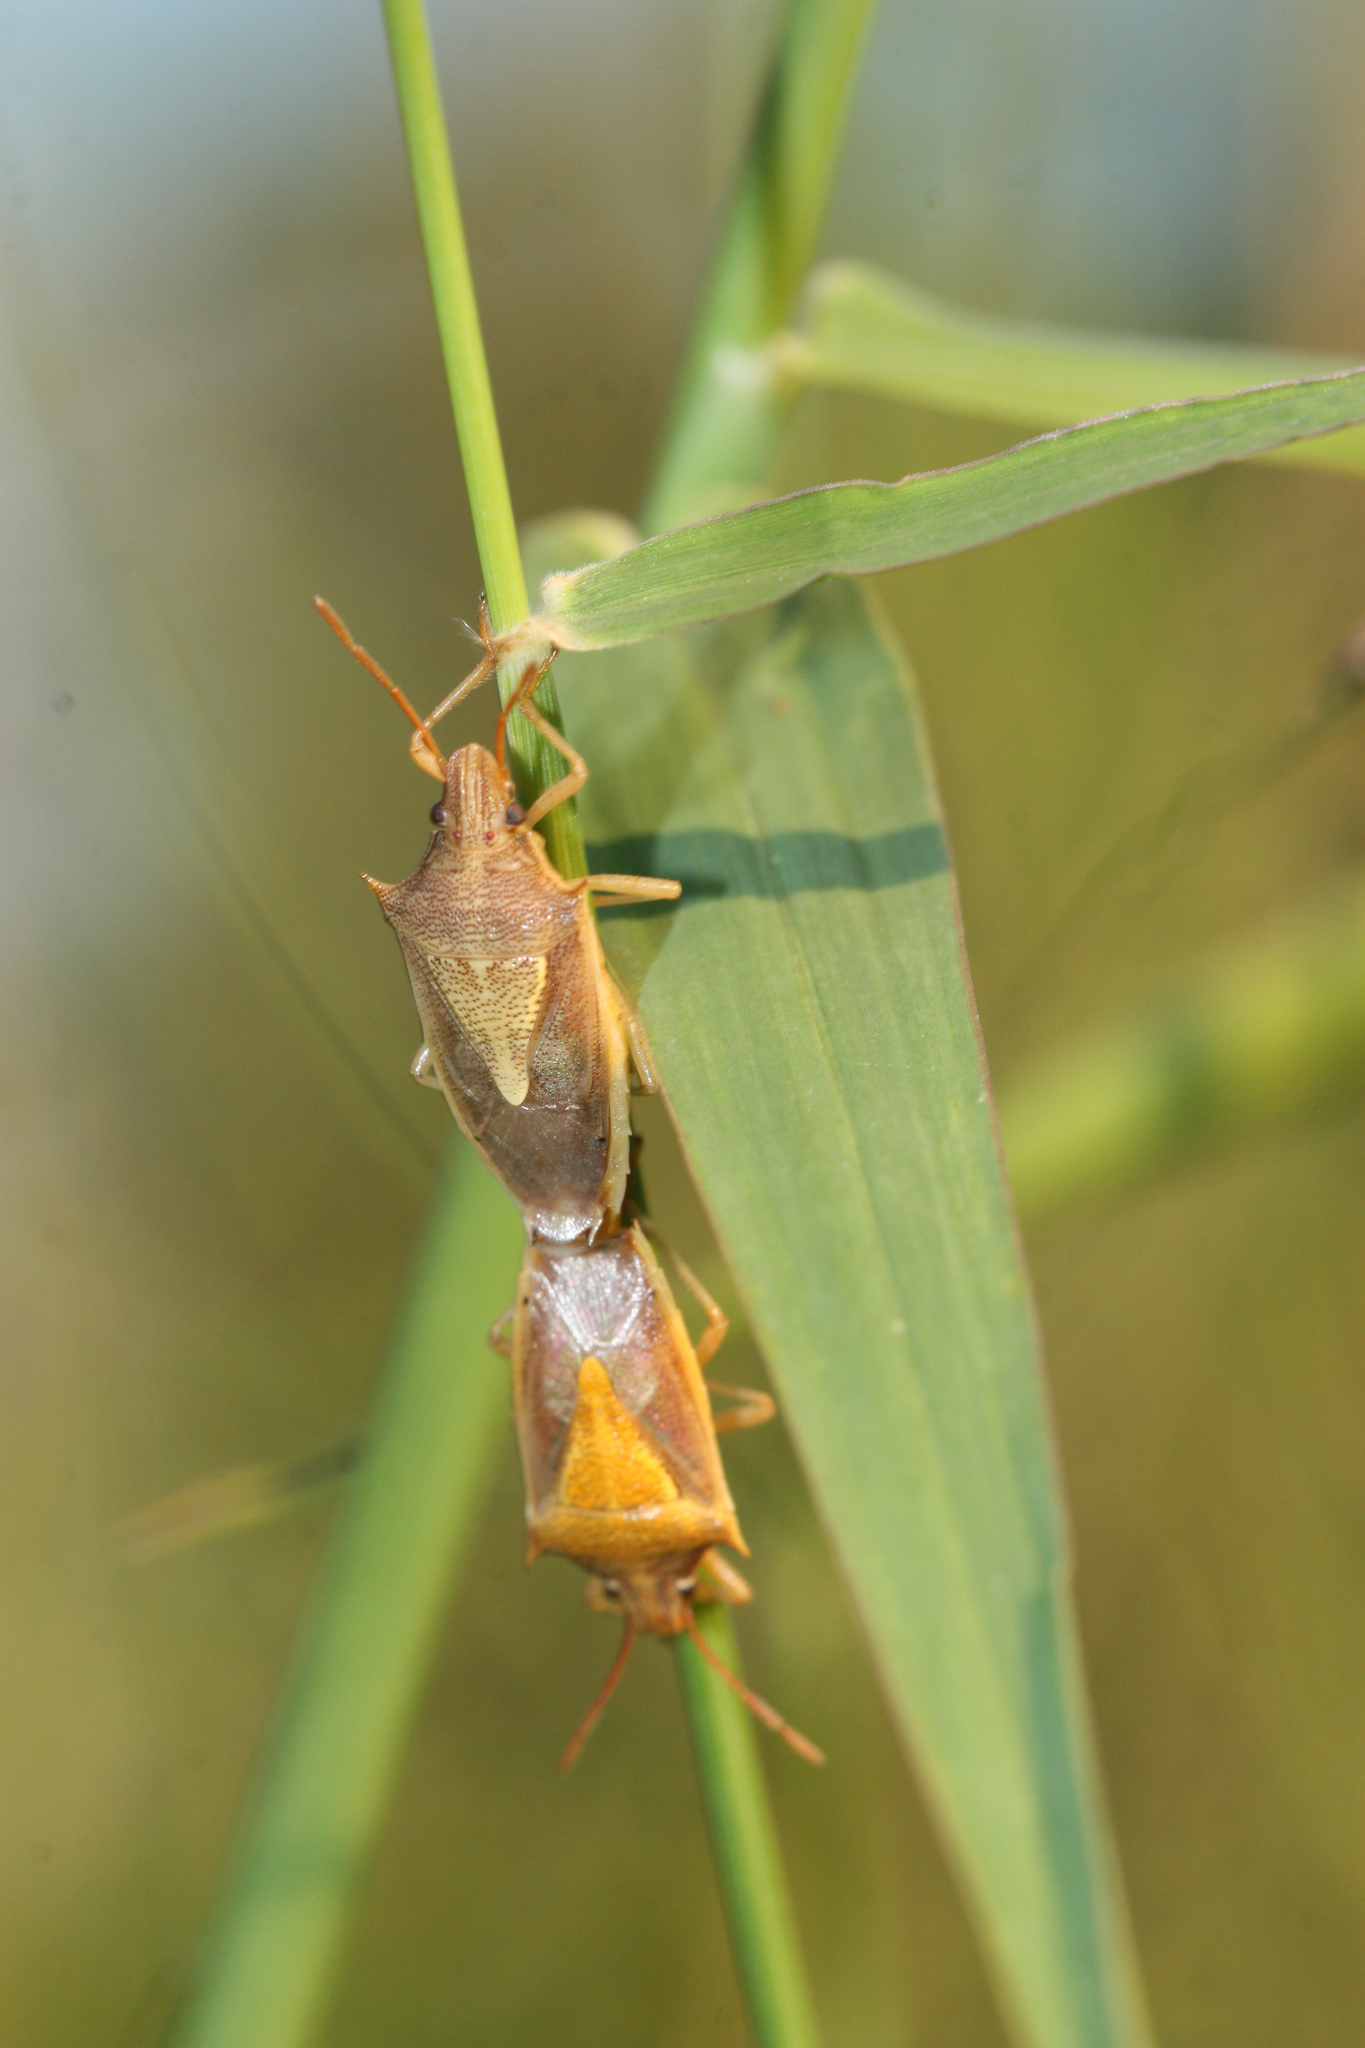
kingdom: Animalia
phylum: Arthropoda
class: Insecta
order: Hemiptera
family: Pentatomidae
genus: Oebalus
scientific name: Oebalus pugnax
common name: Rice stink bug
